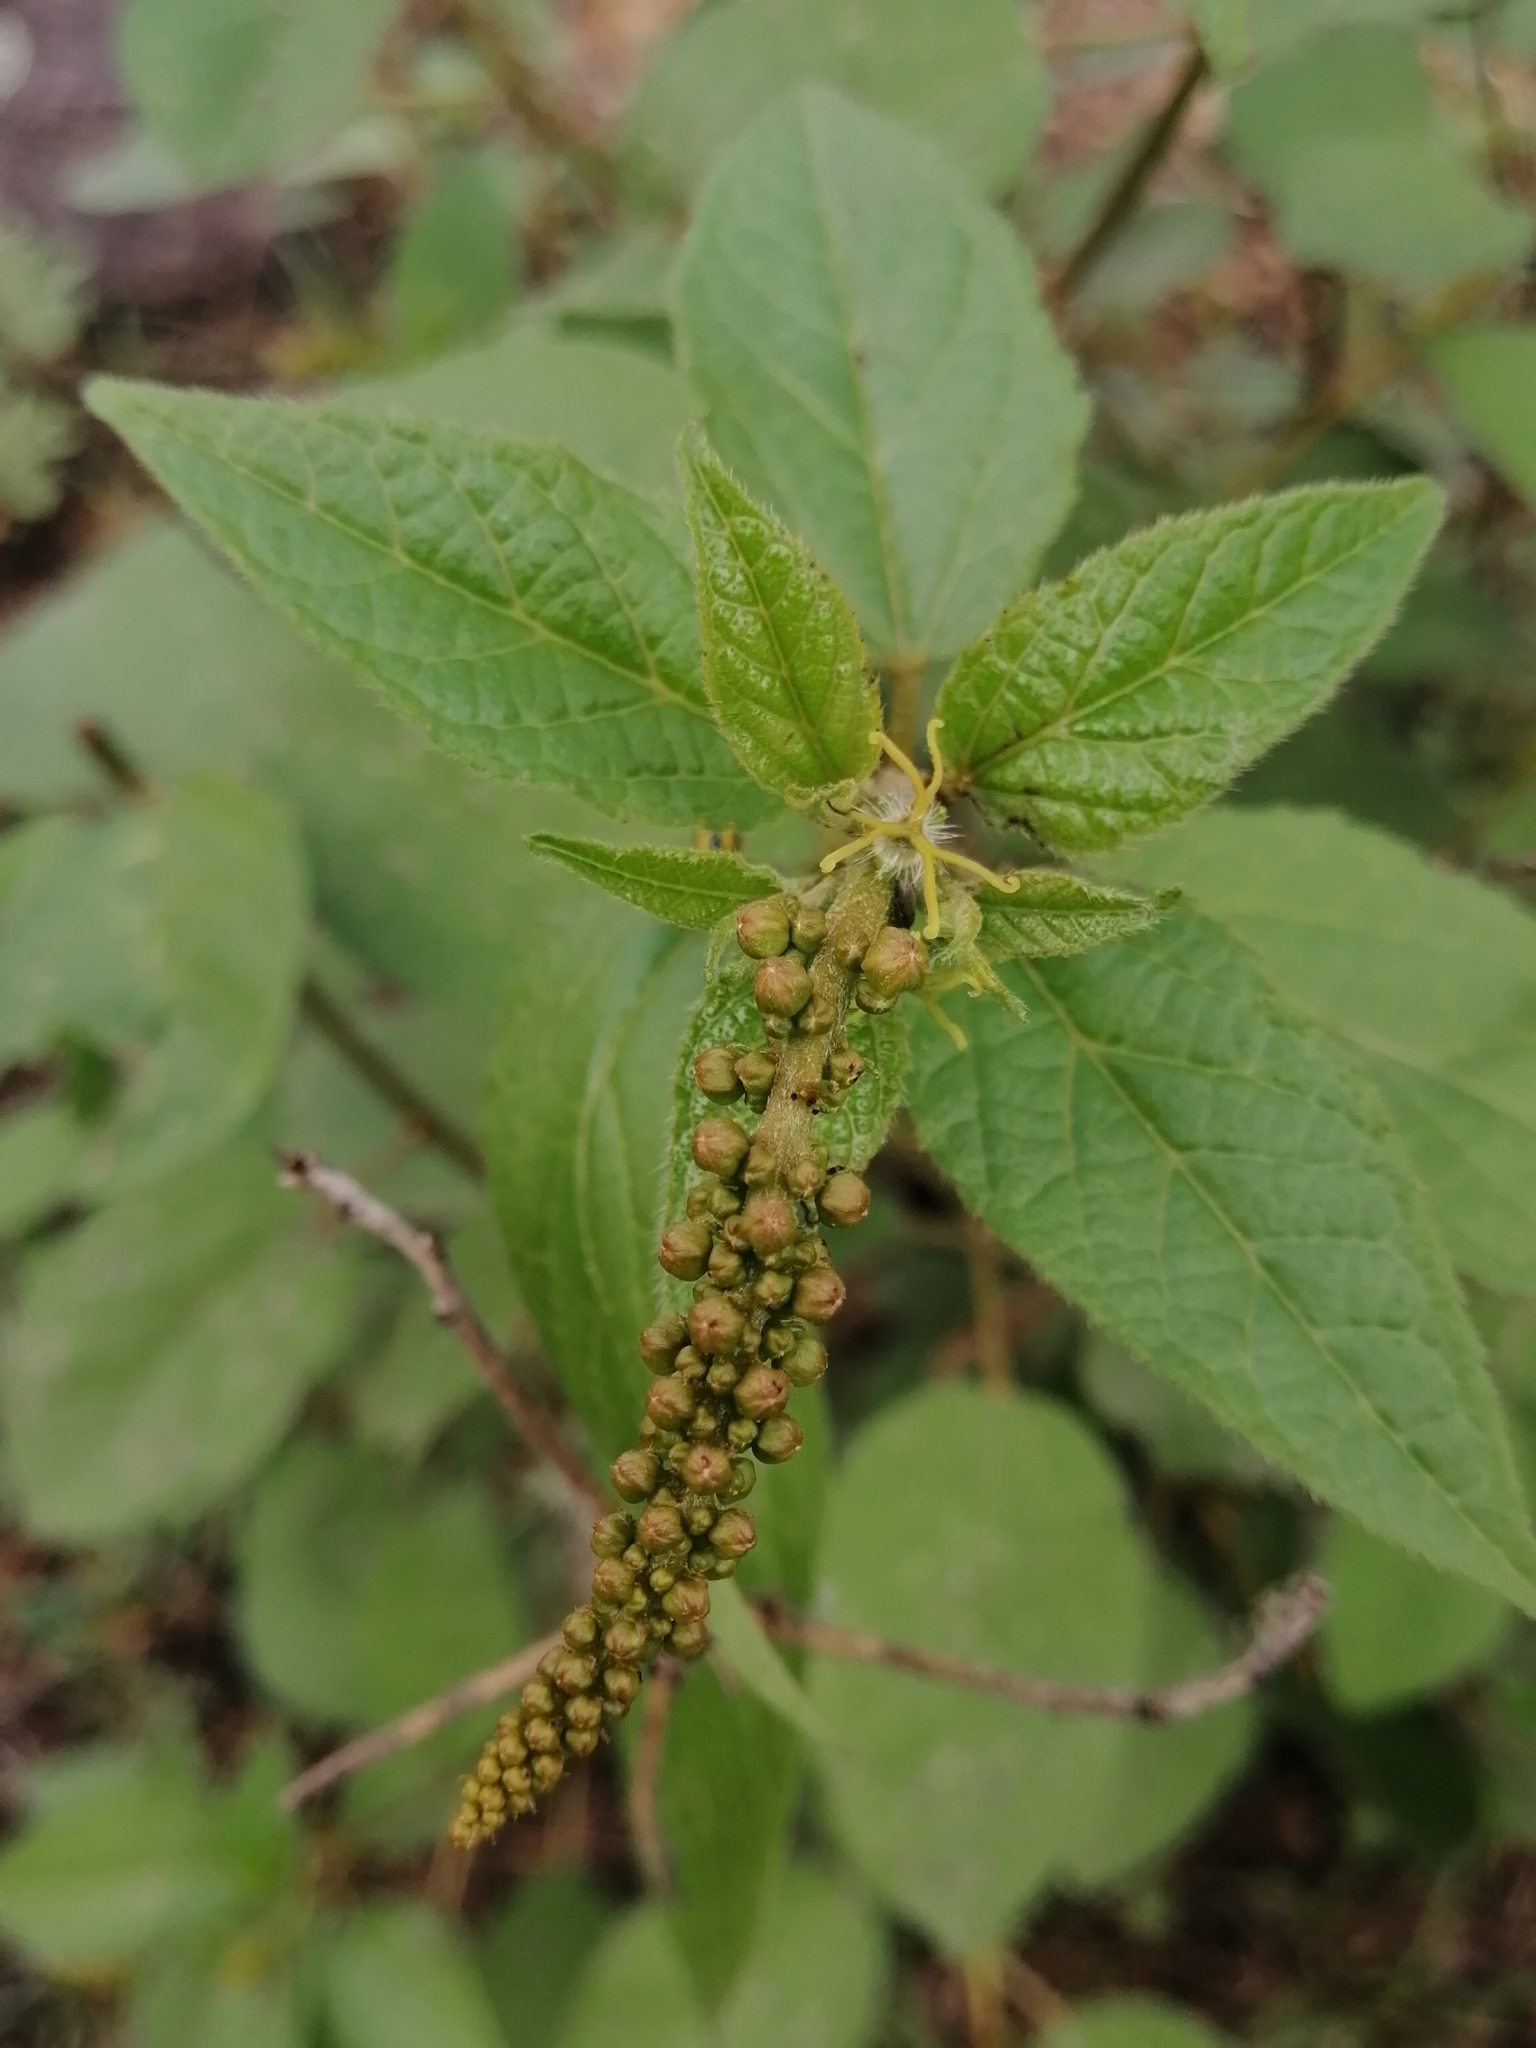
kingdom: Plantae
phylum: Tracheophyta
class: Magnoliopsida
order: Malpighiales
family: Euphorbiaceae
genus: Croton
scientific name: Croton adspersus
